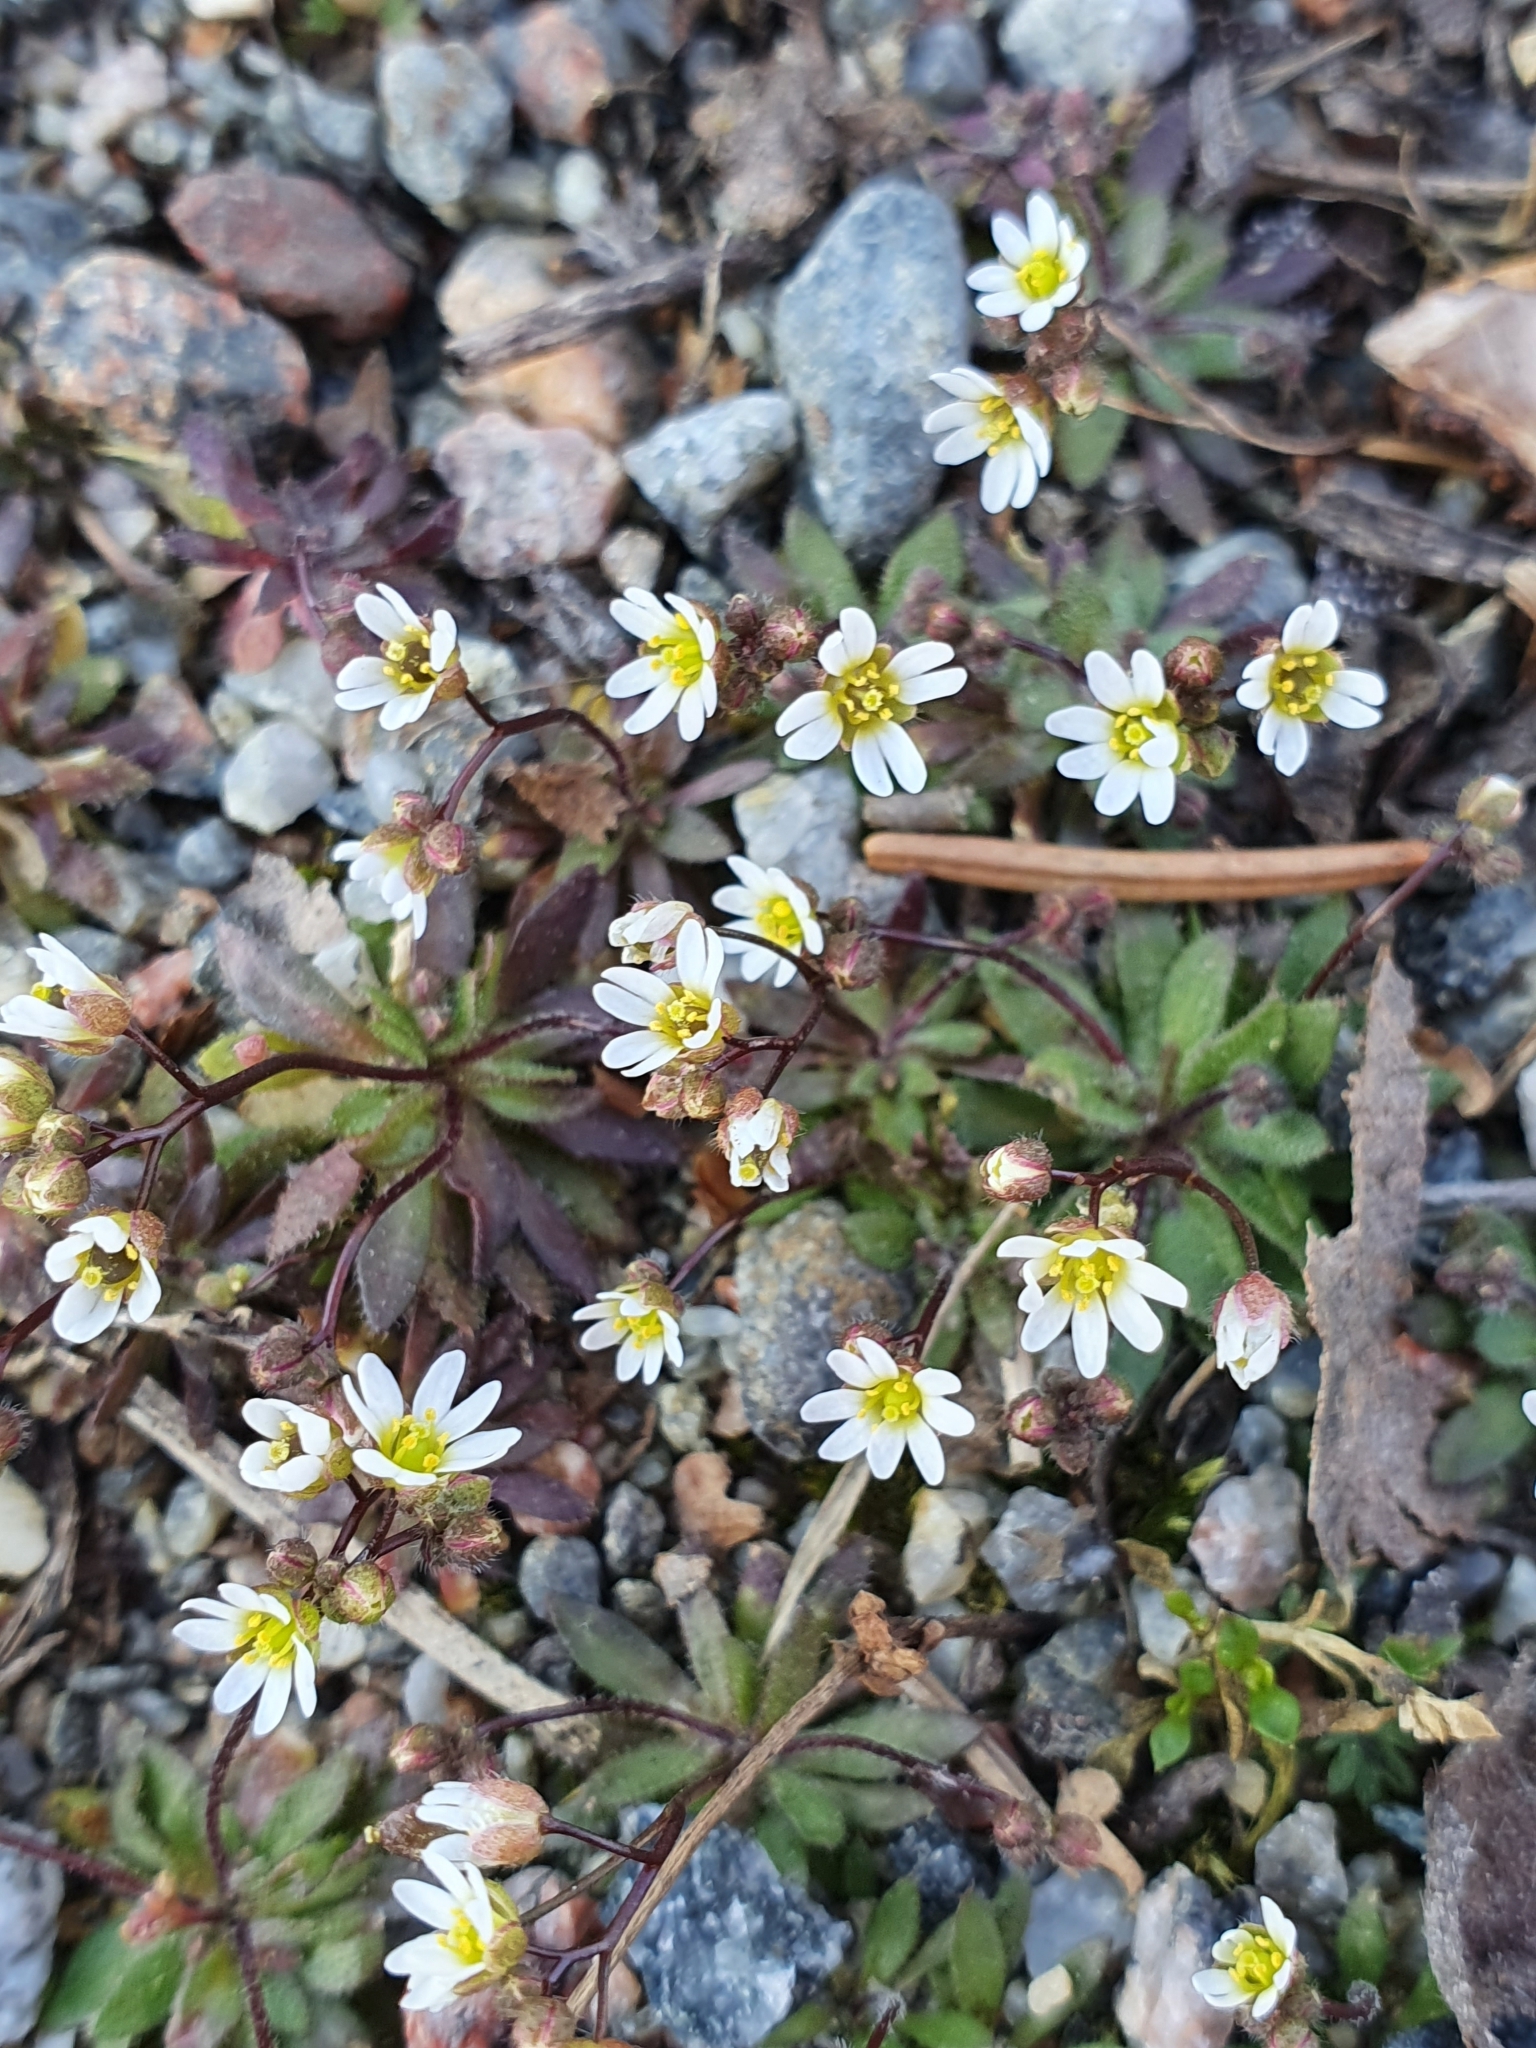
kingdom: Plantae
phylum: Tracheophyta
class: Magnoliopsida
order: Brassicales
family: Brassicaceae
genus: Draba
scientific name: Draba verna
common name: Spring draba
